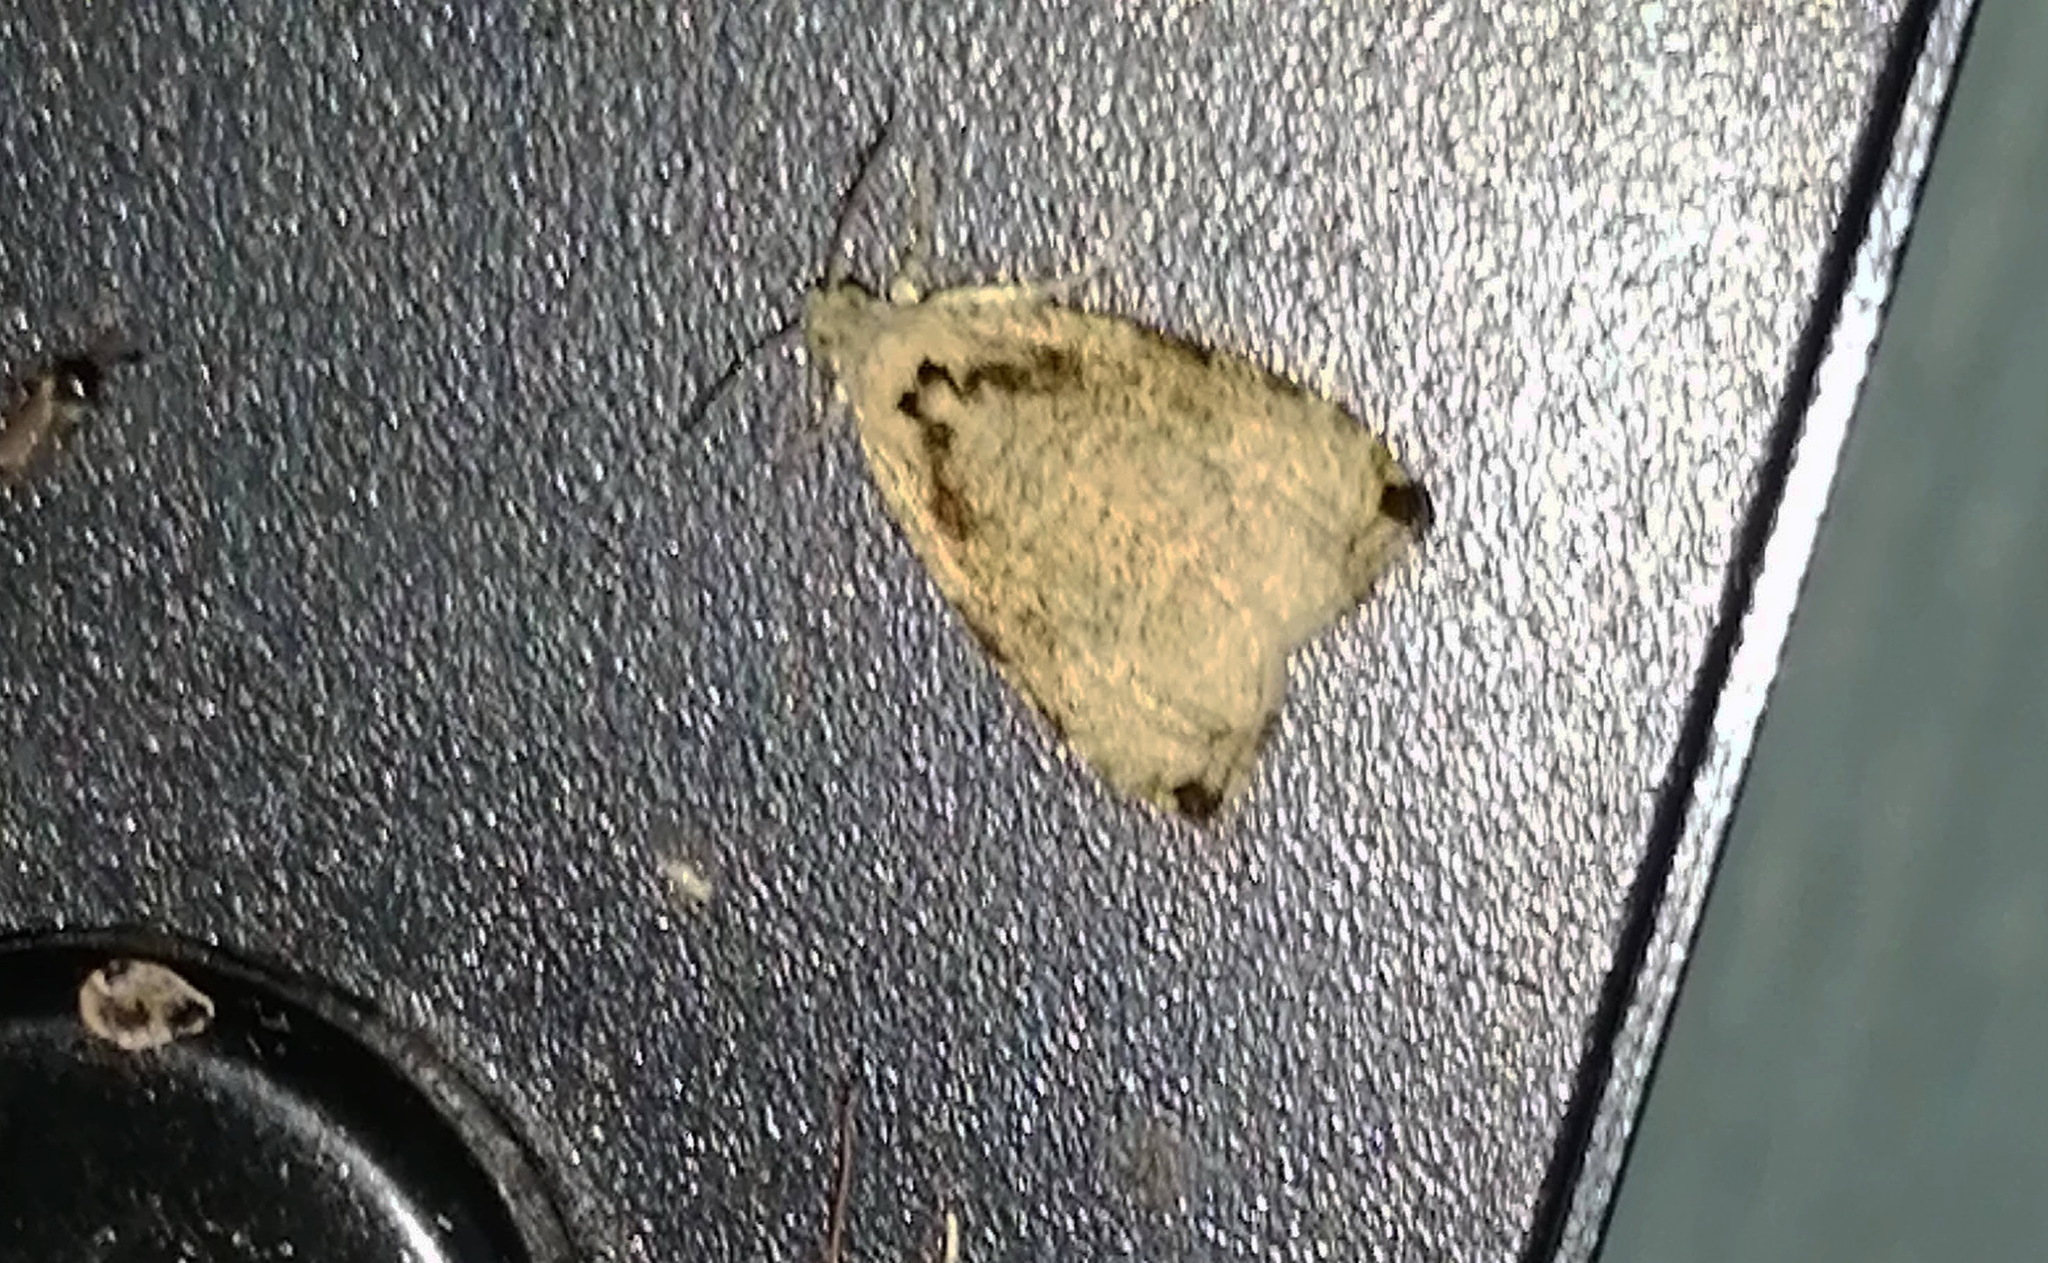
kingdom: Animalia
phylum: Arthropoda
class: Insecta
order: Lepidoptera
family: Tortricidae
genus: Olethreutes
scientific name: Olethreutes exoletum
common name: Wretched olethreutes moth
